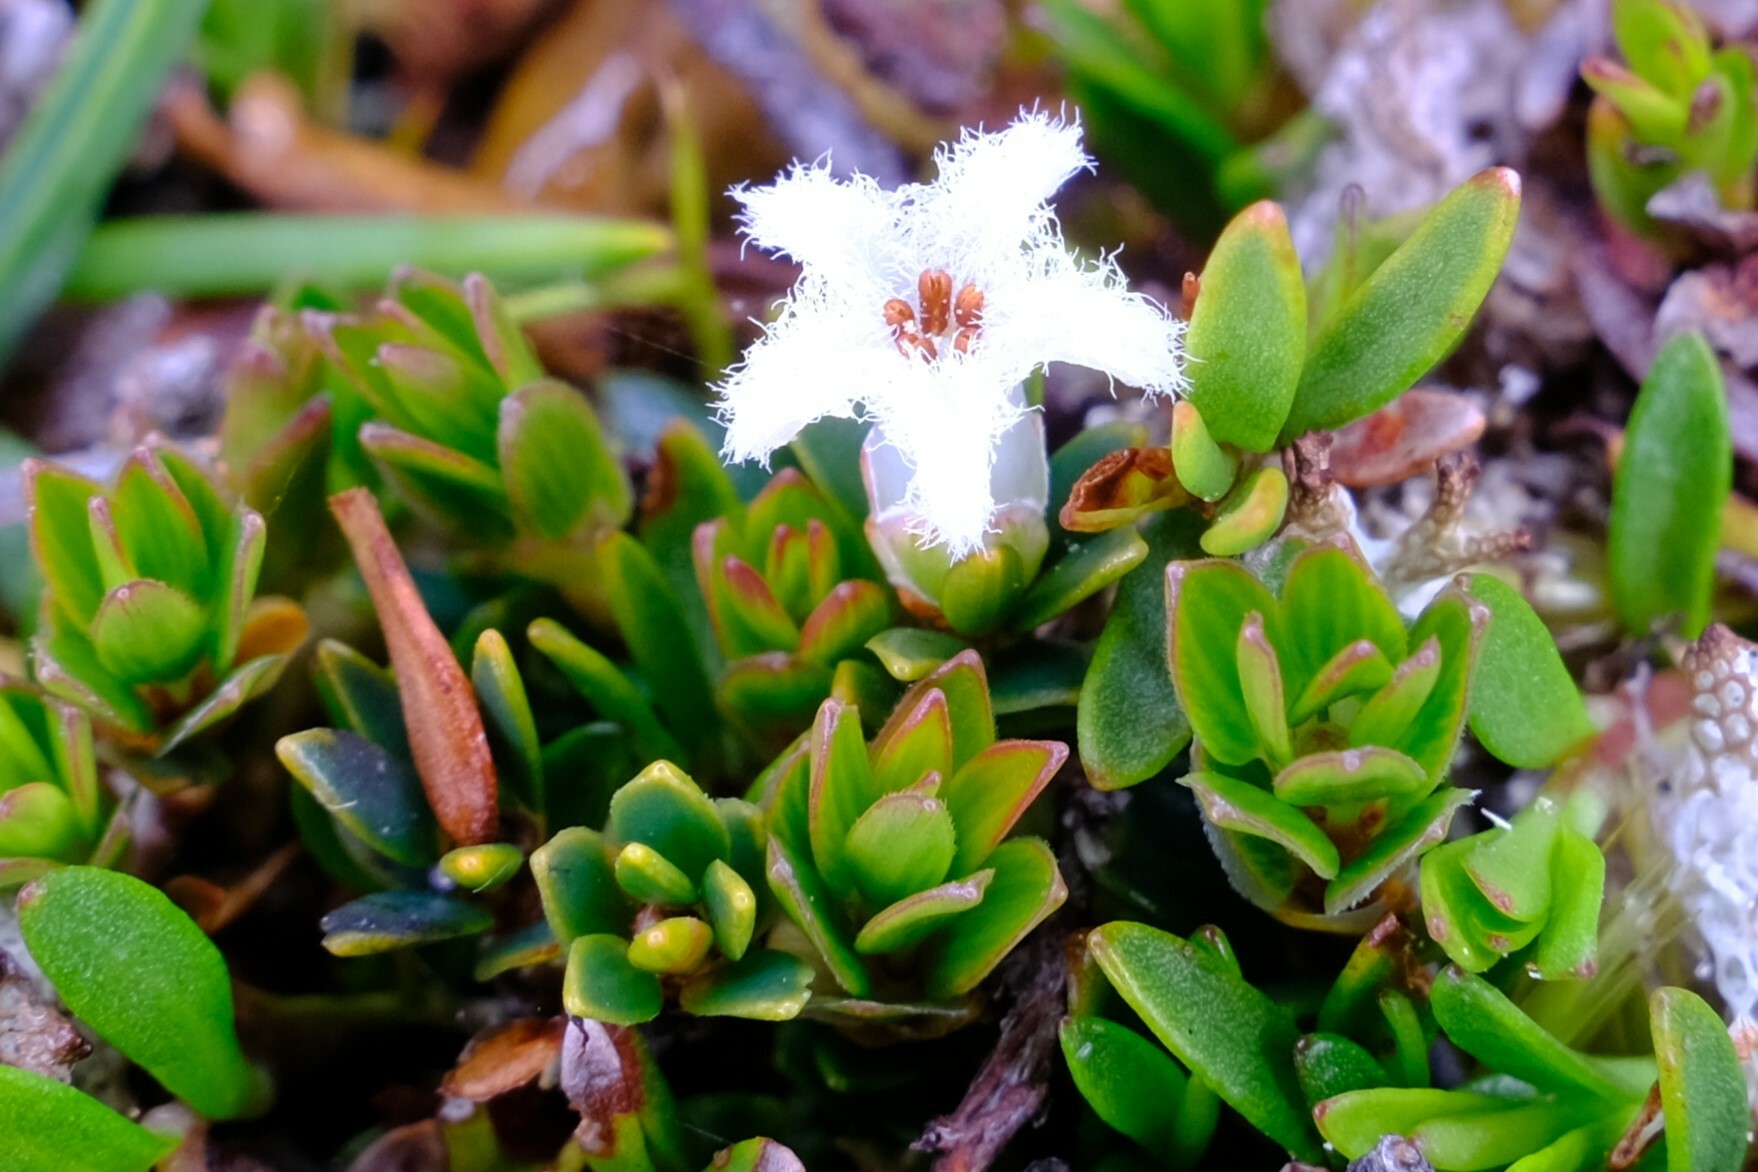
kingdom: Plantae
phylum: Tracheophyta
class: Magnoliopsida
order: Ericales
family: Ericaceae
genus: Pentachondra
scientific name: Pentachondra pumila
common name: Carpet-heath
